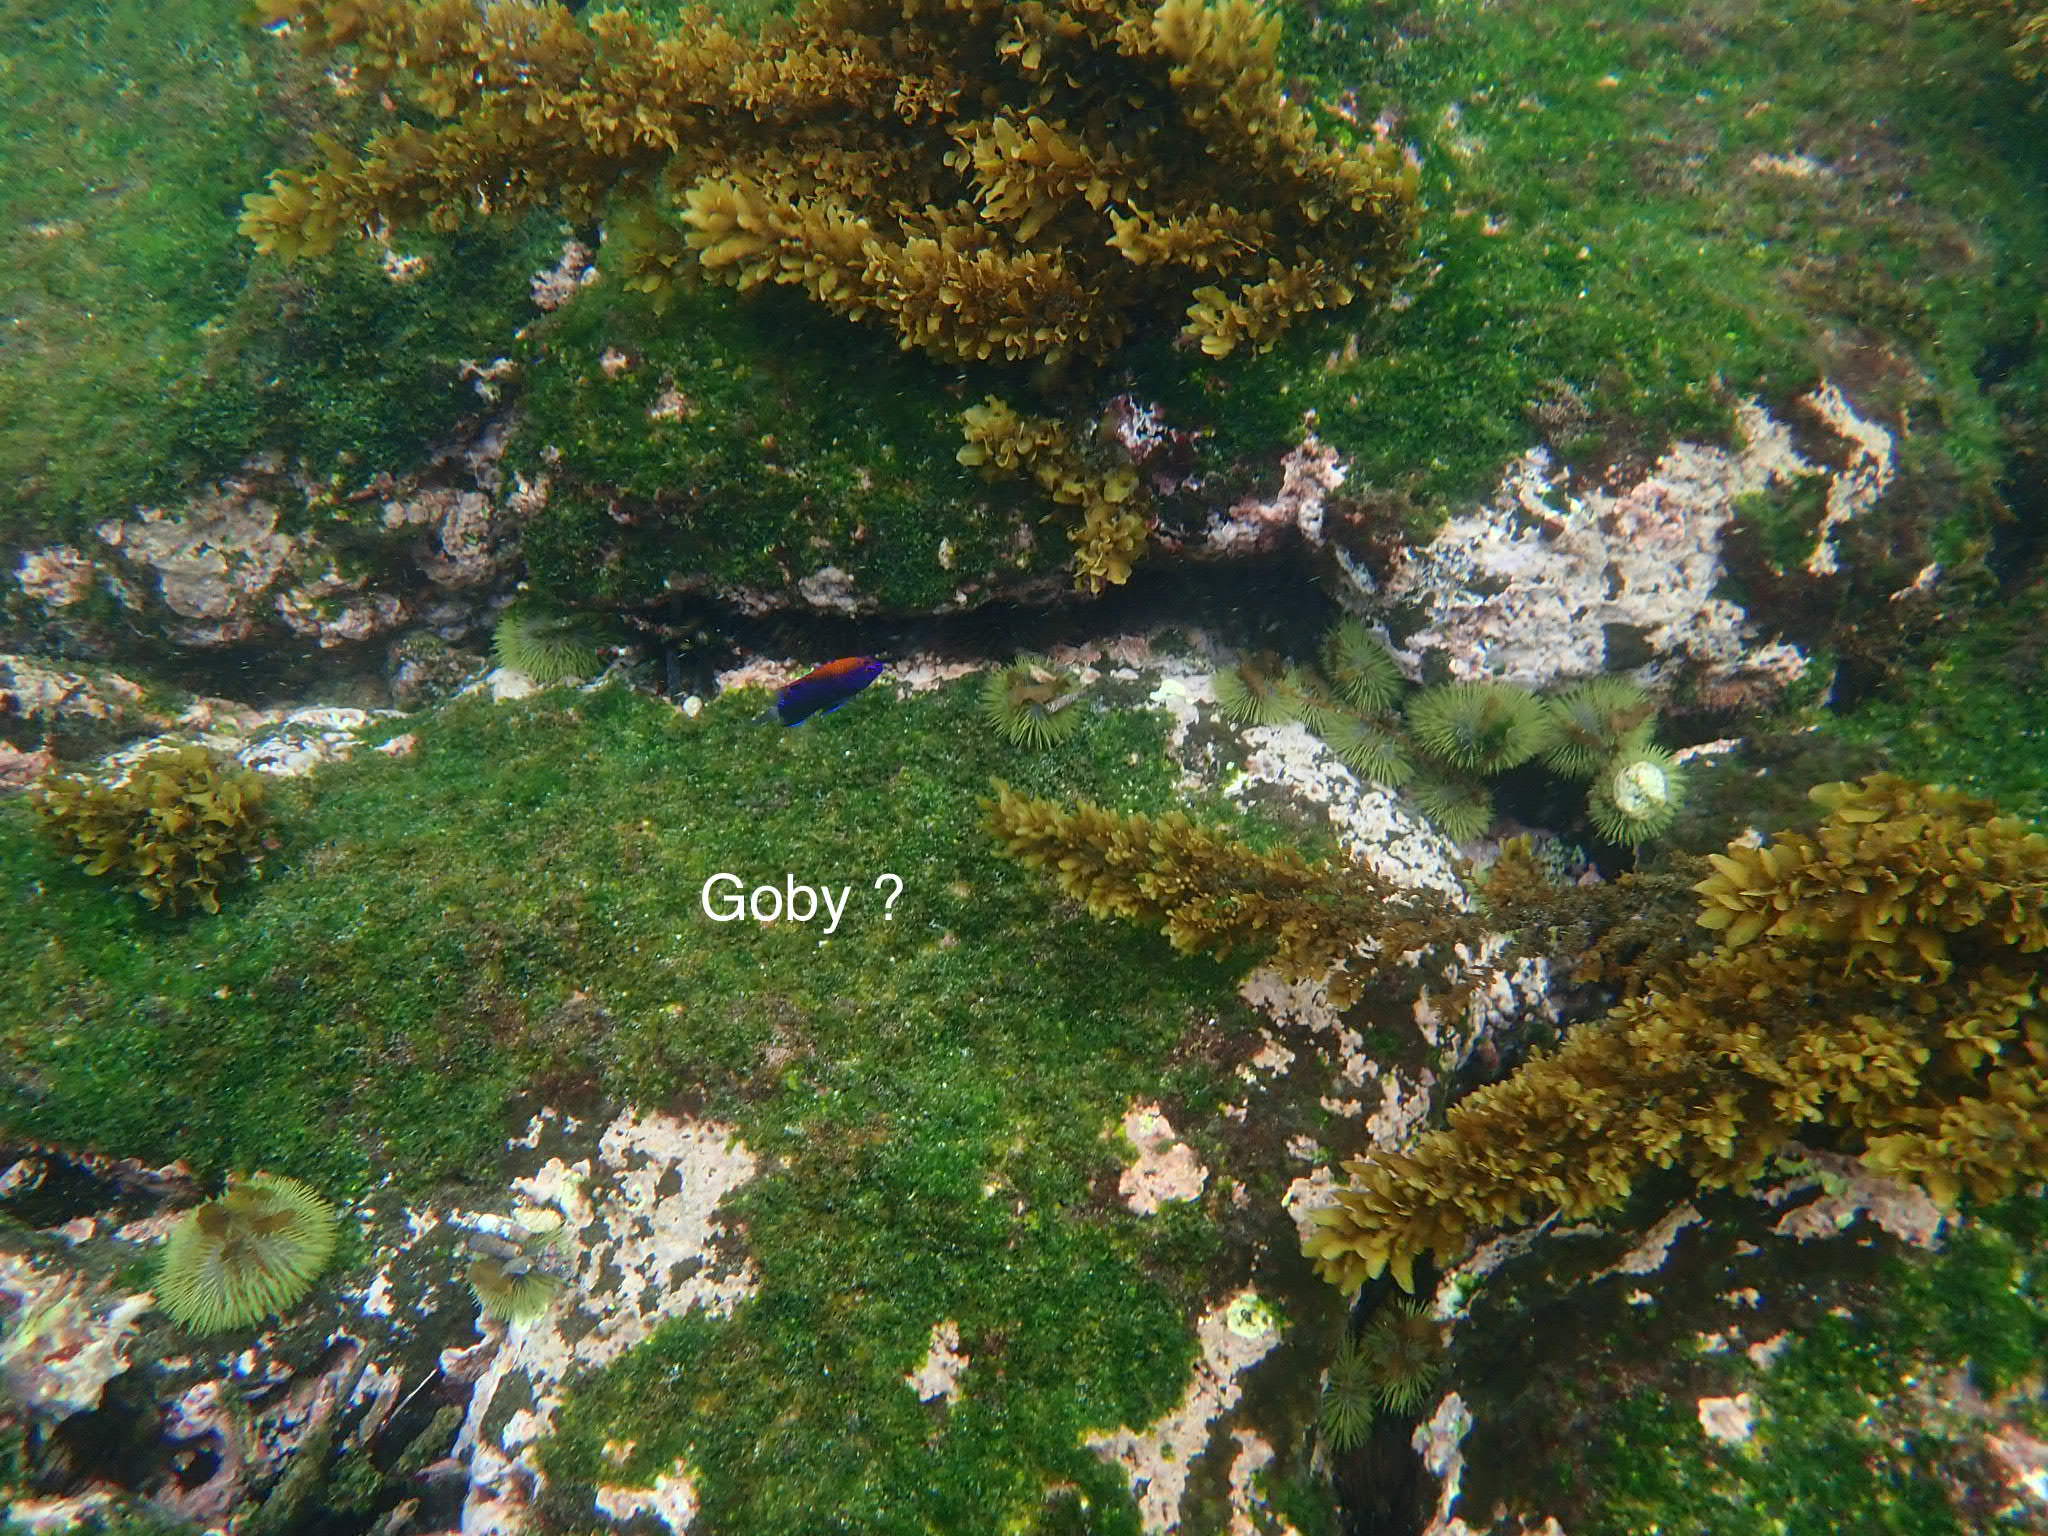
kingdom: Animalia
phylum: Chordata
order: Perciformes
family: Pomacentridae
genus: Stegastes
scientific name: Stegastes beebei
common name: Galapagos ringtail damselfish
